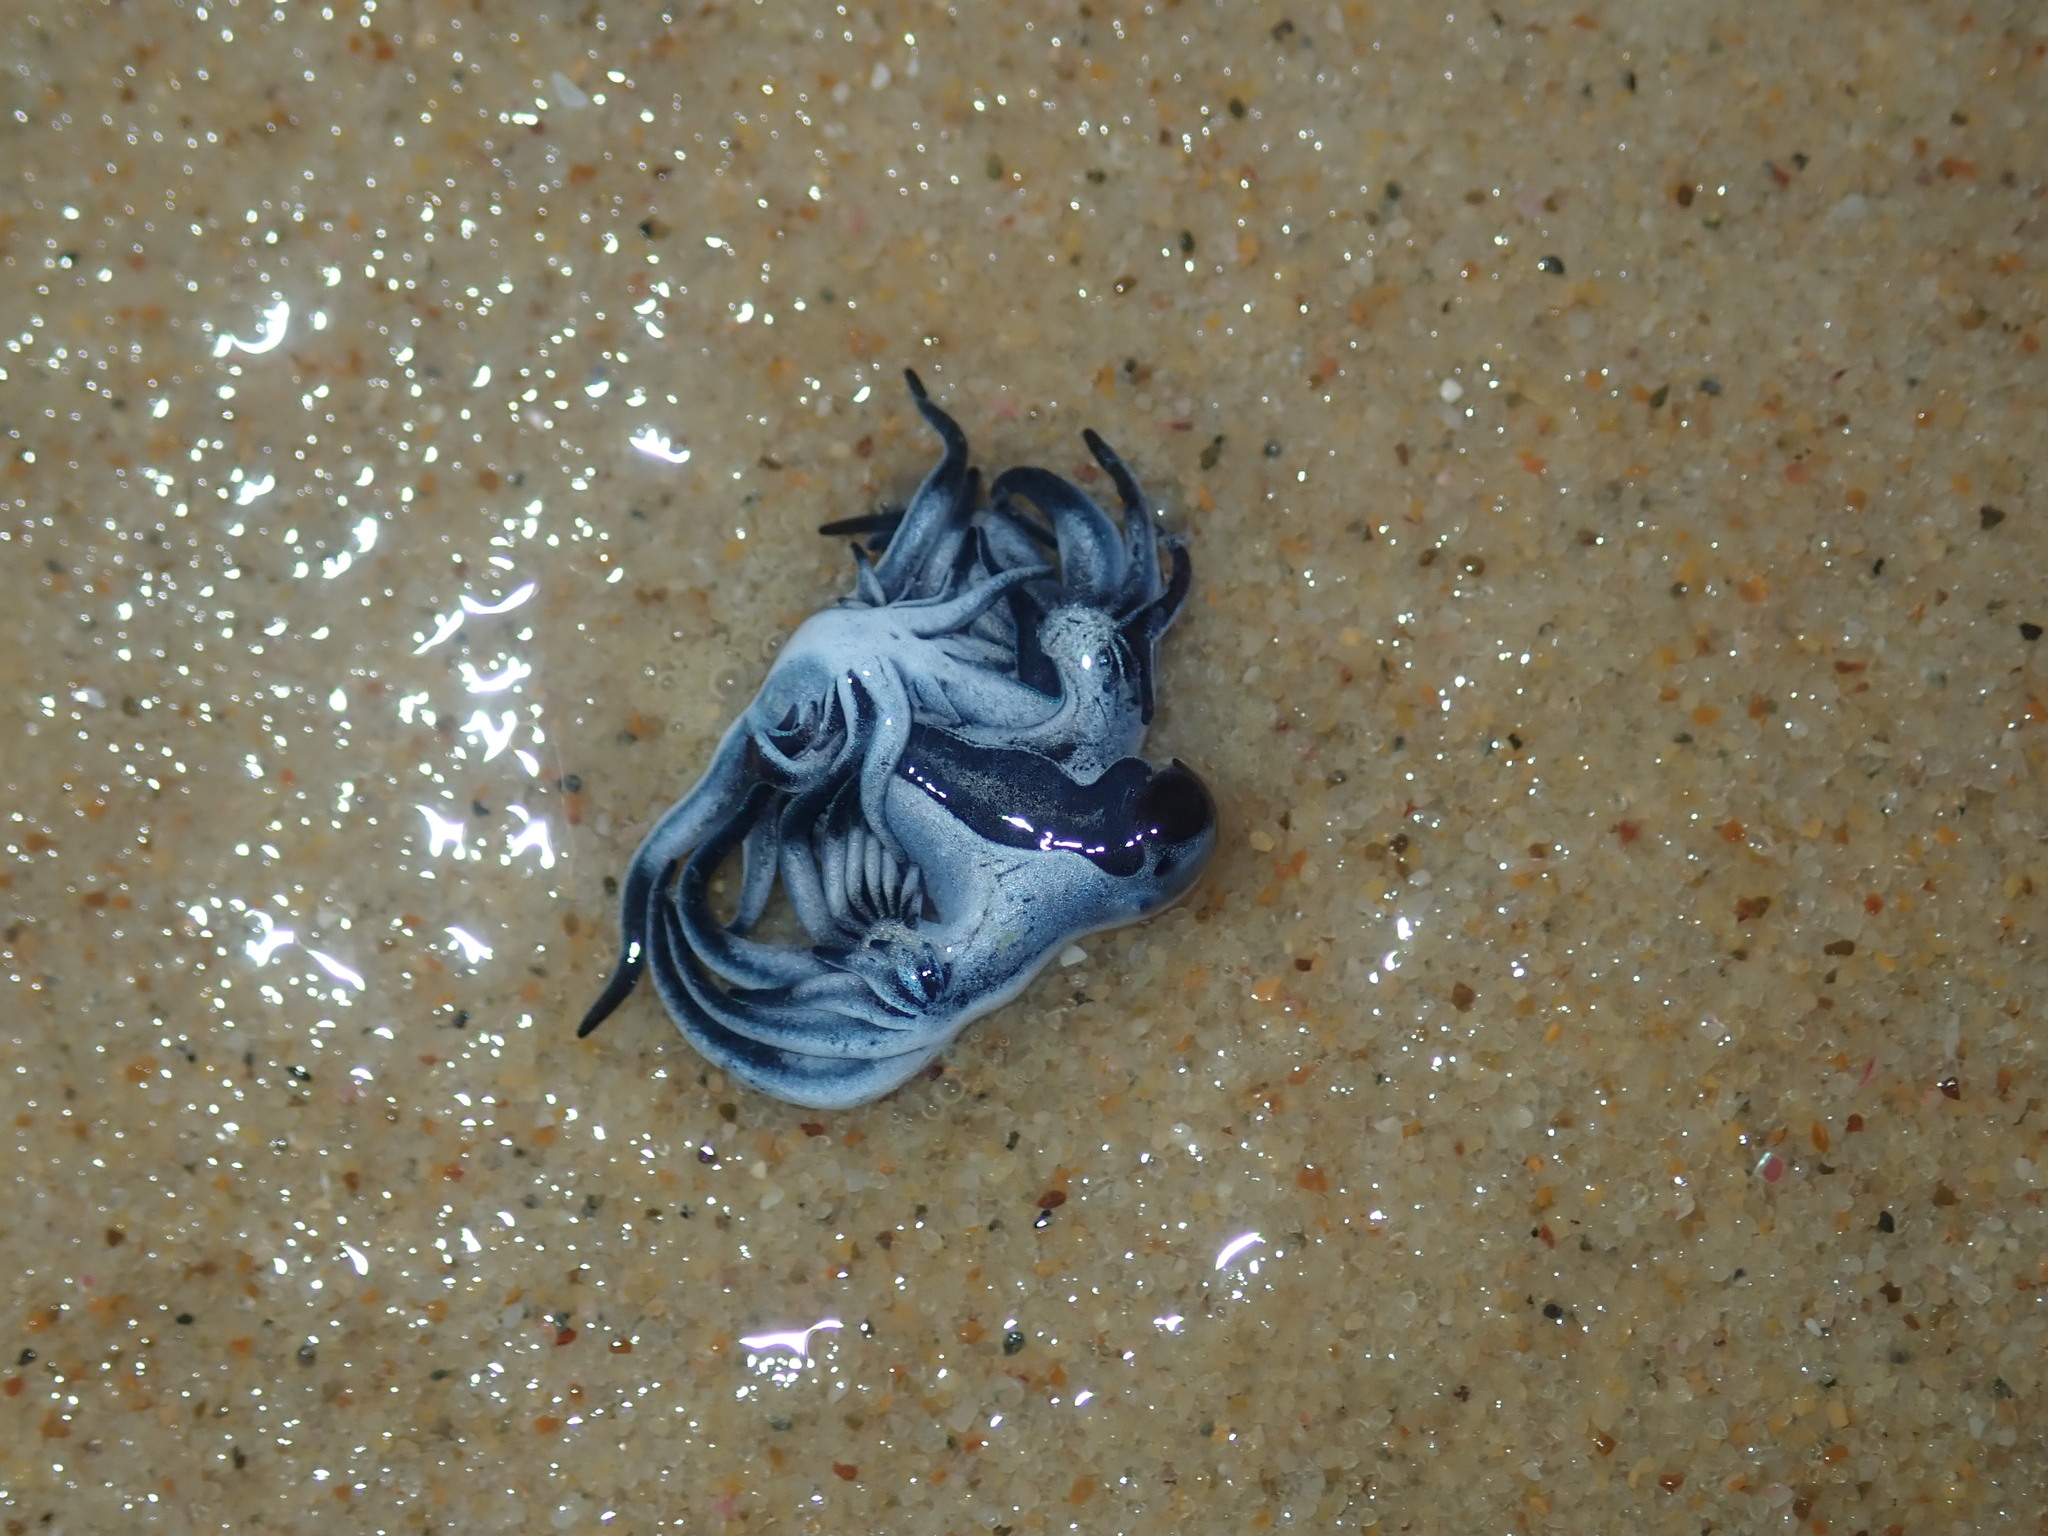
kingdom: Animalia
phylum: Mollusca
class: Gastropoda
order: Nudibranchia
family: Glaucidae
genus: Glaucus
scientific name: Glaucus atlanticus
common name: Purple ocean slug
